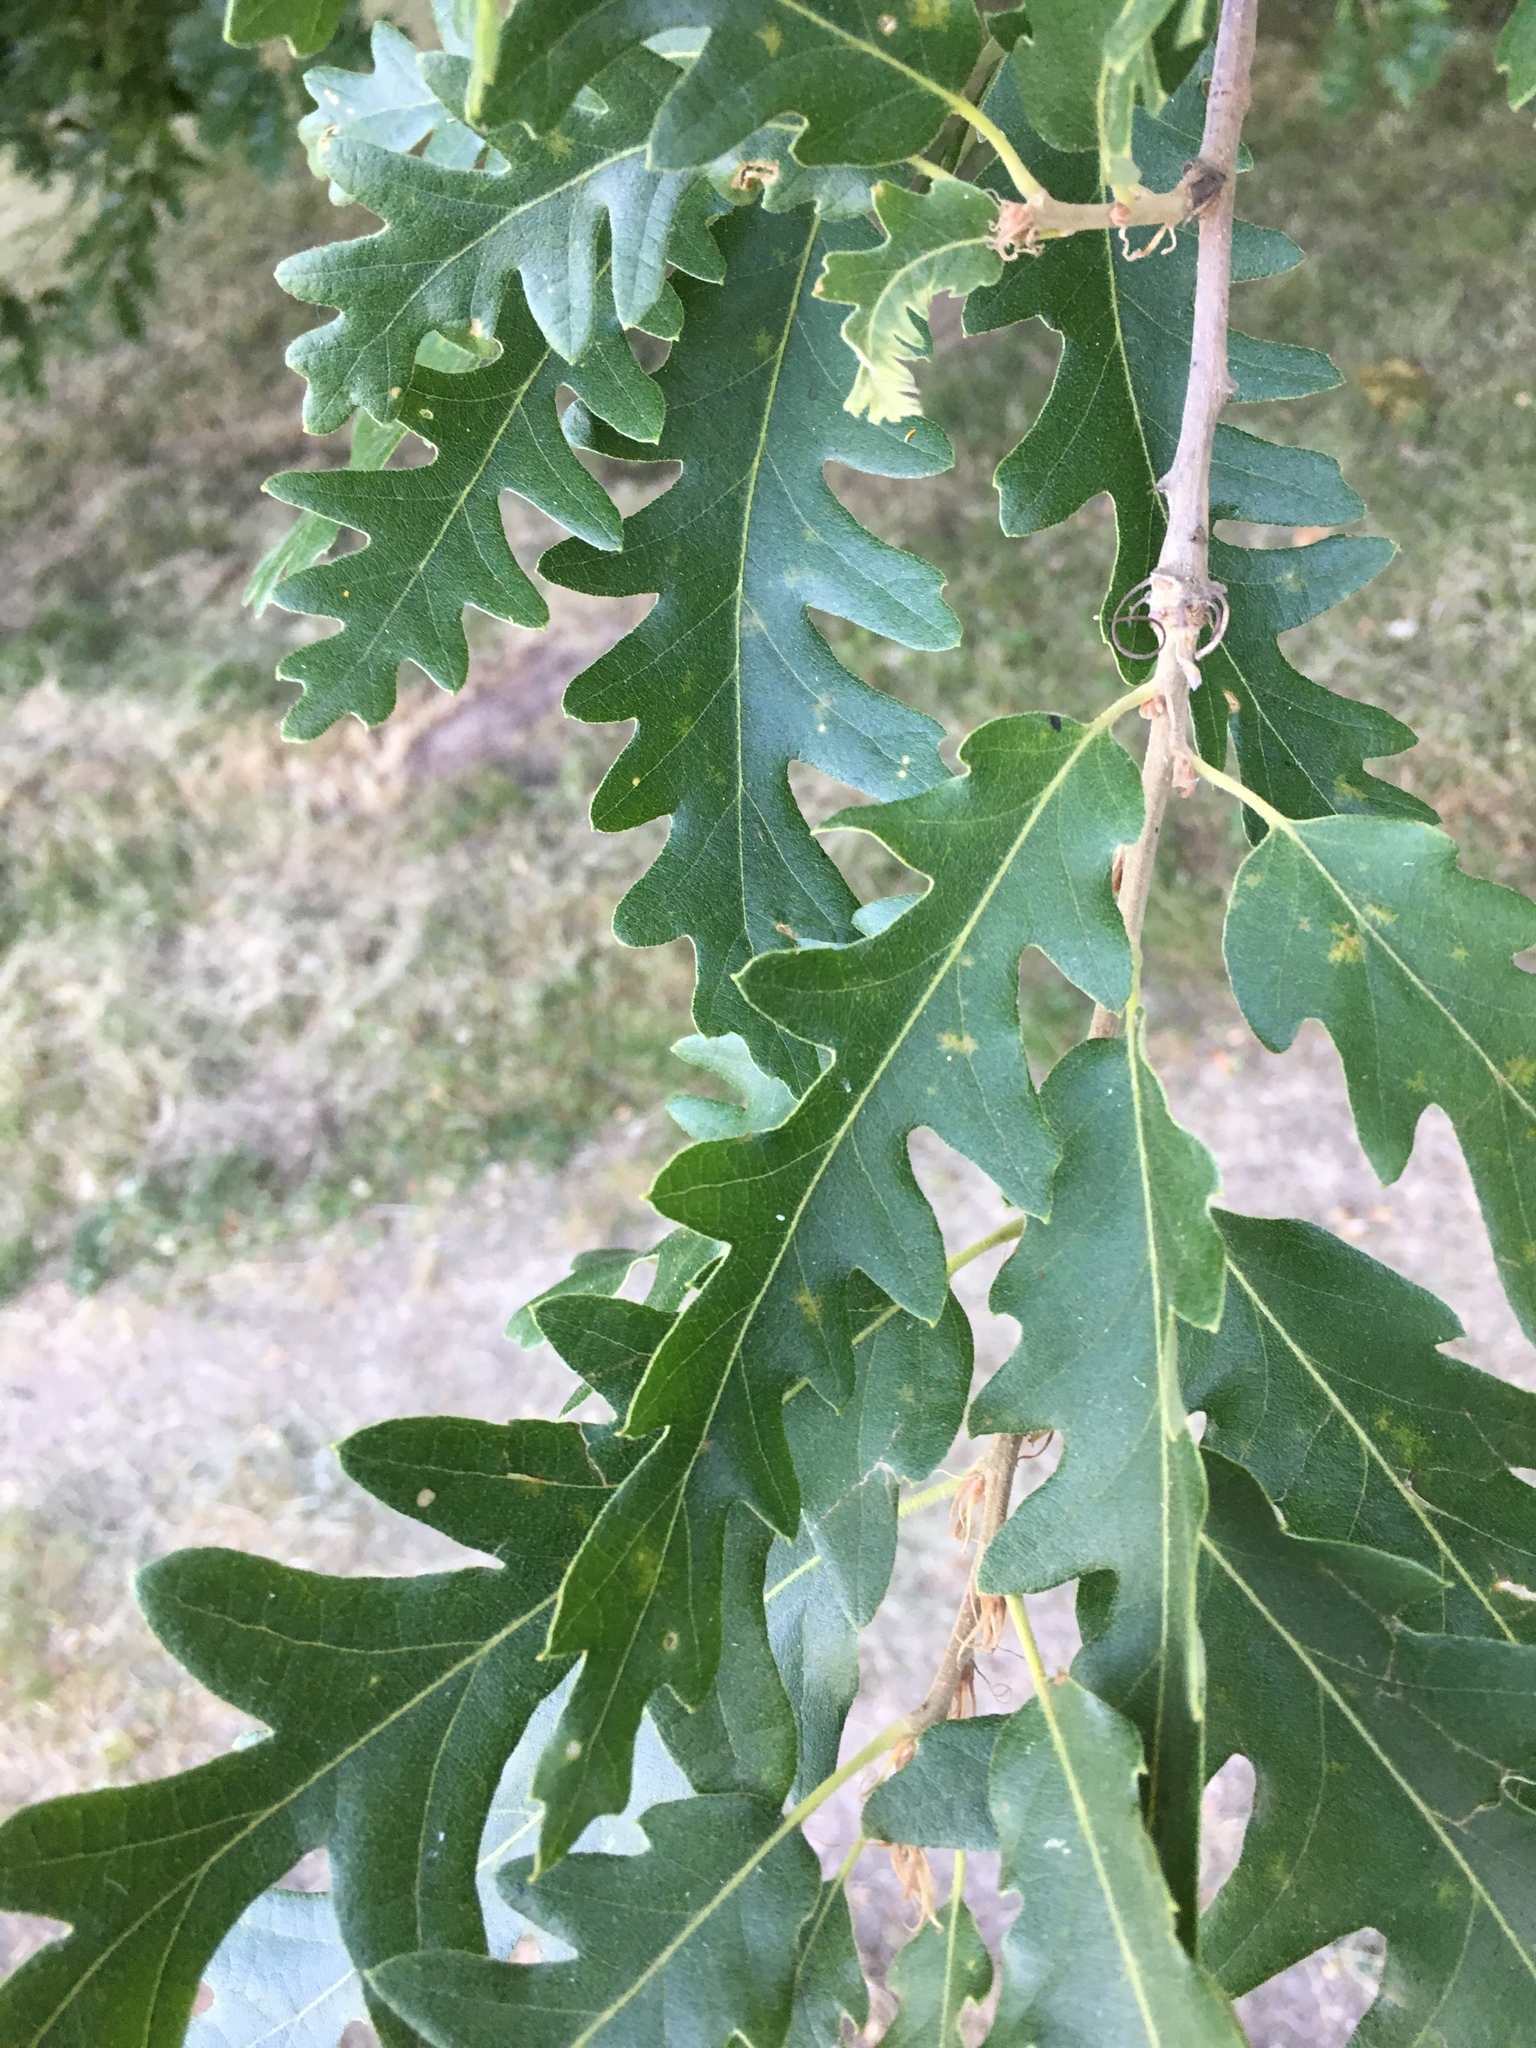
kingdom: Plantae
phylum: Tracheophyta
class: Magnoliopsida
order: Fagales
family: Fagaceae
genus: Quercus
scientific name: Quercus cerris
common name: Turkey oak
